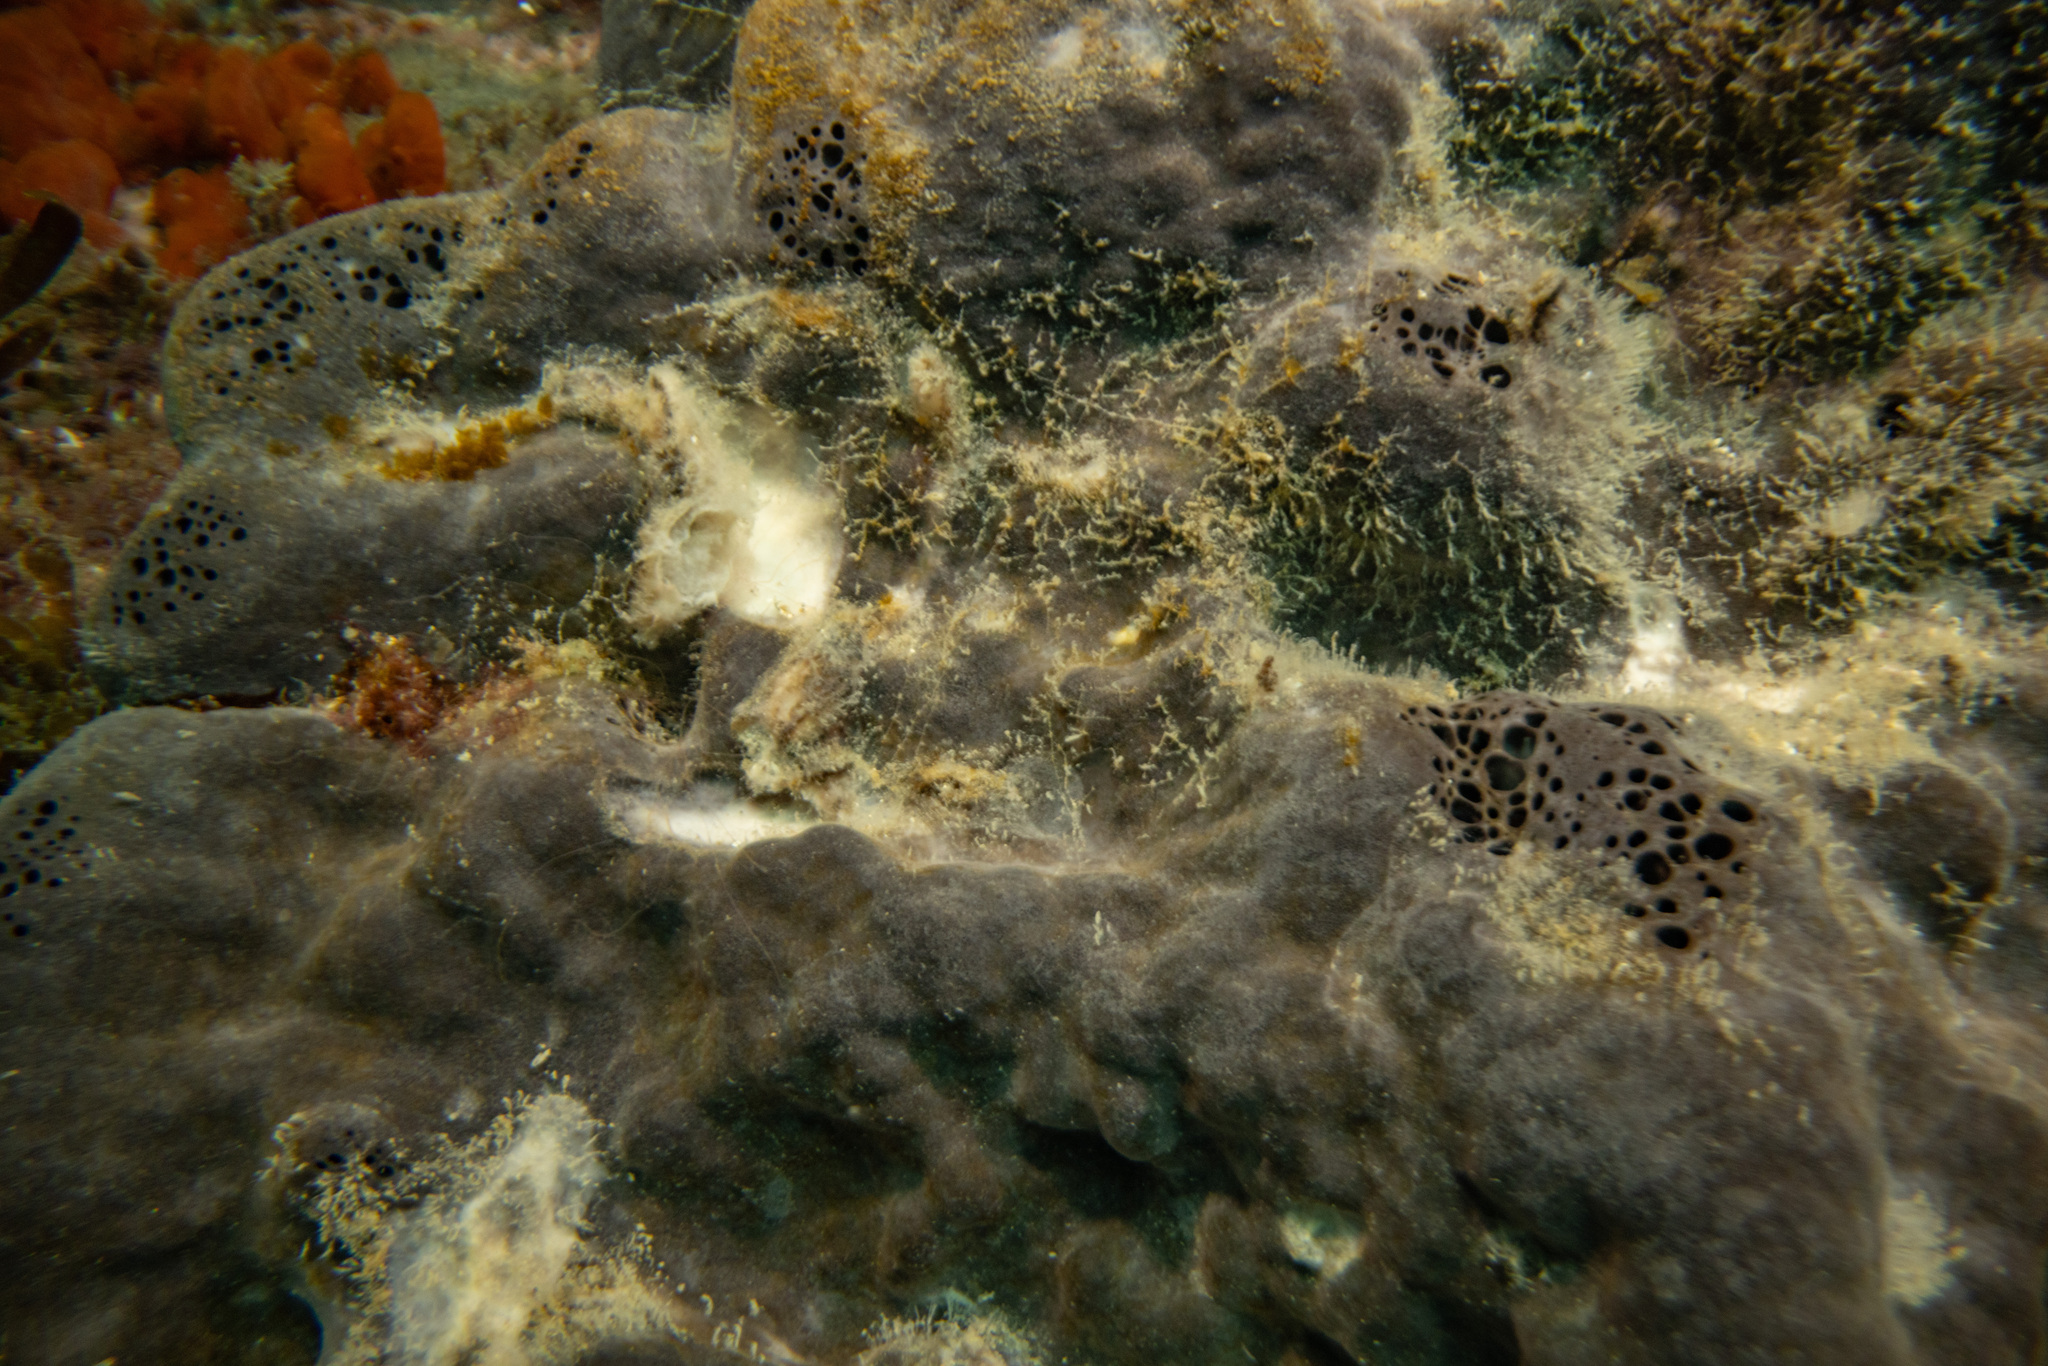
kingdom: Animalia
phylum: Porifera
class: Demospongiae
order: Tetractinellida
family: Ancorinidae
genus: Ecionemia
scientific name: Ecionemia alata
